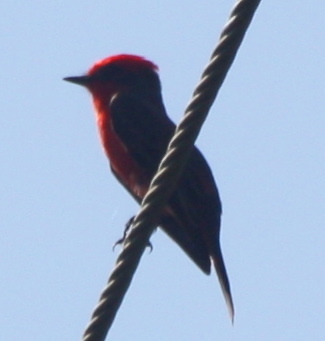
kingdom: Animalia
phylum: Chordata
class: Aves
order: Passeriformes
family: Tyrannidae
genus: Pyrocephalus
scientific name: Pyrocephalus rubinus
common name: Vermilion flycatcher
